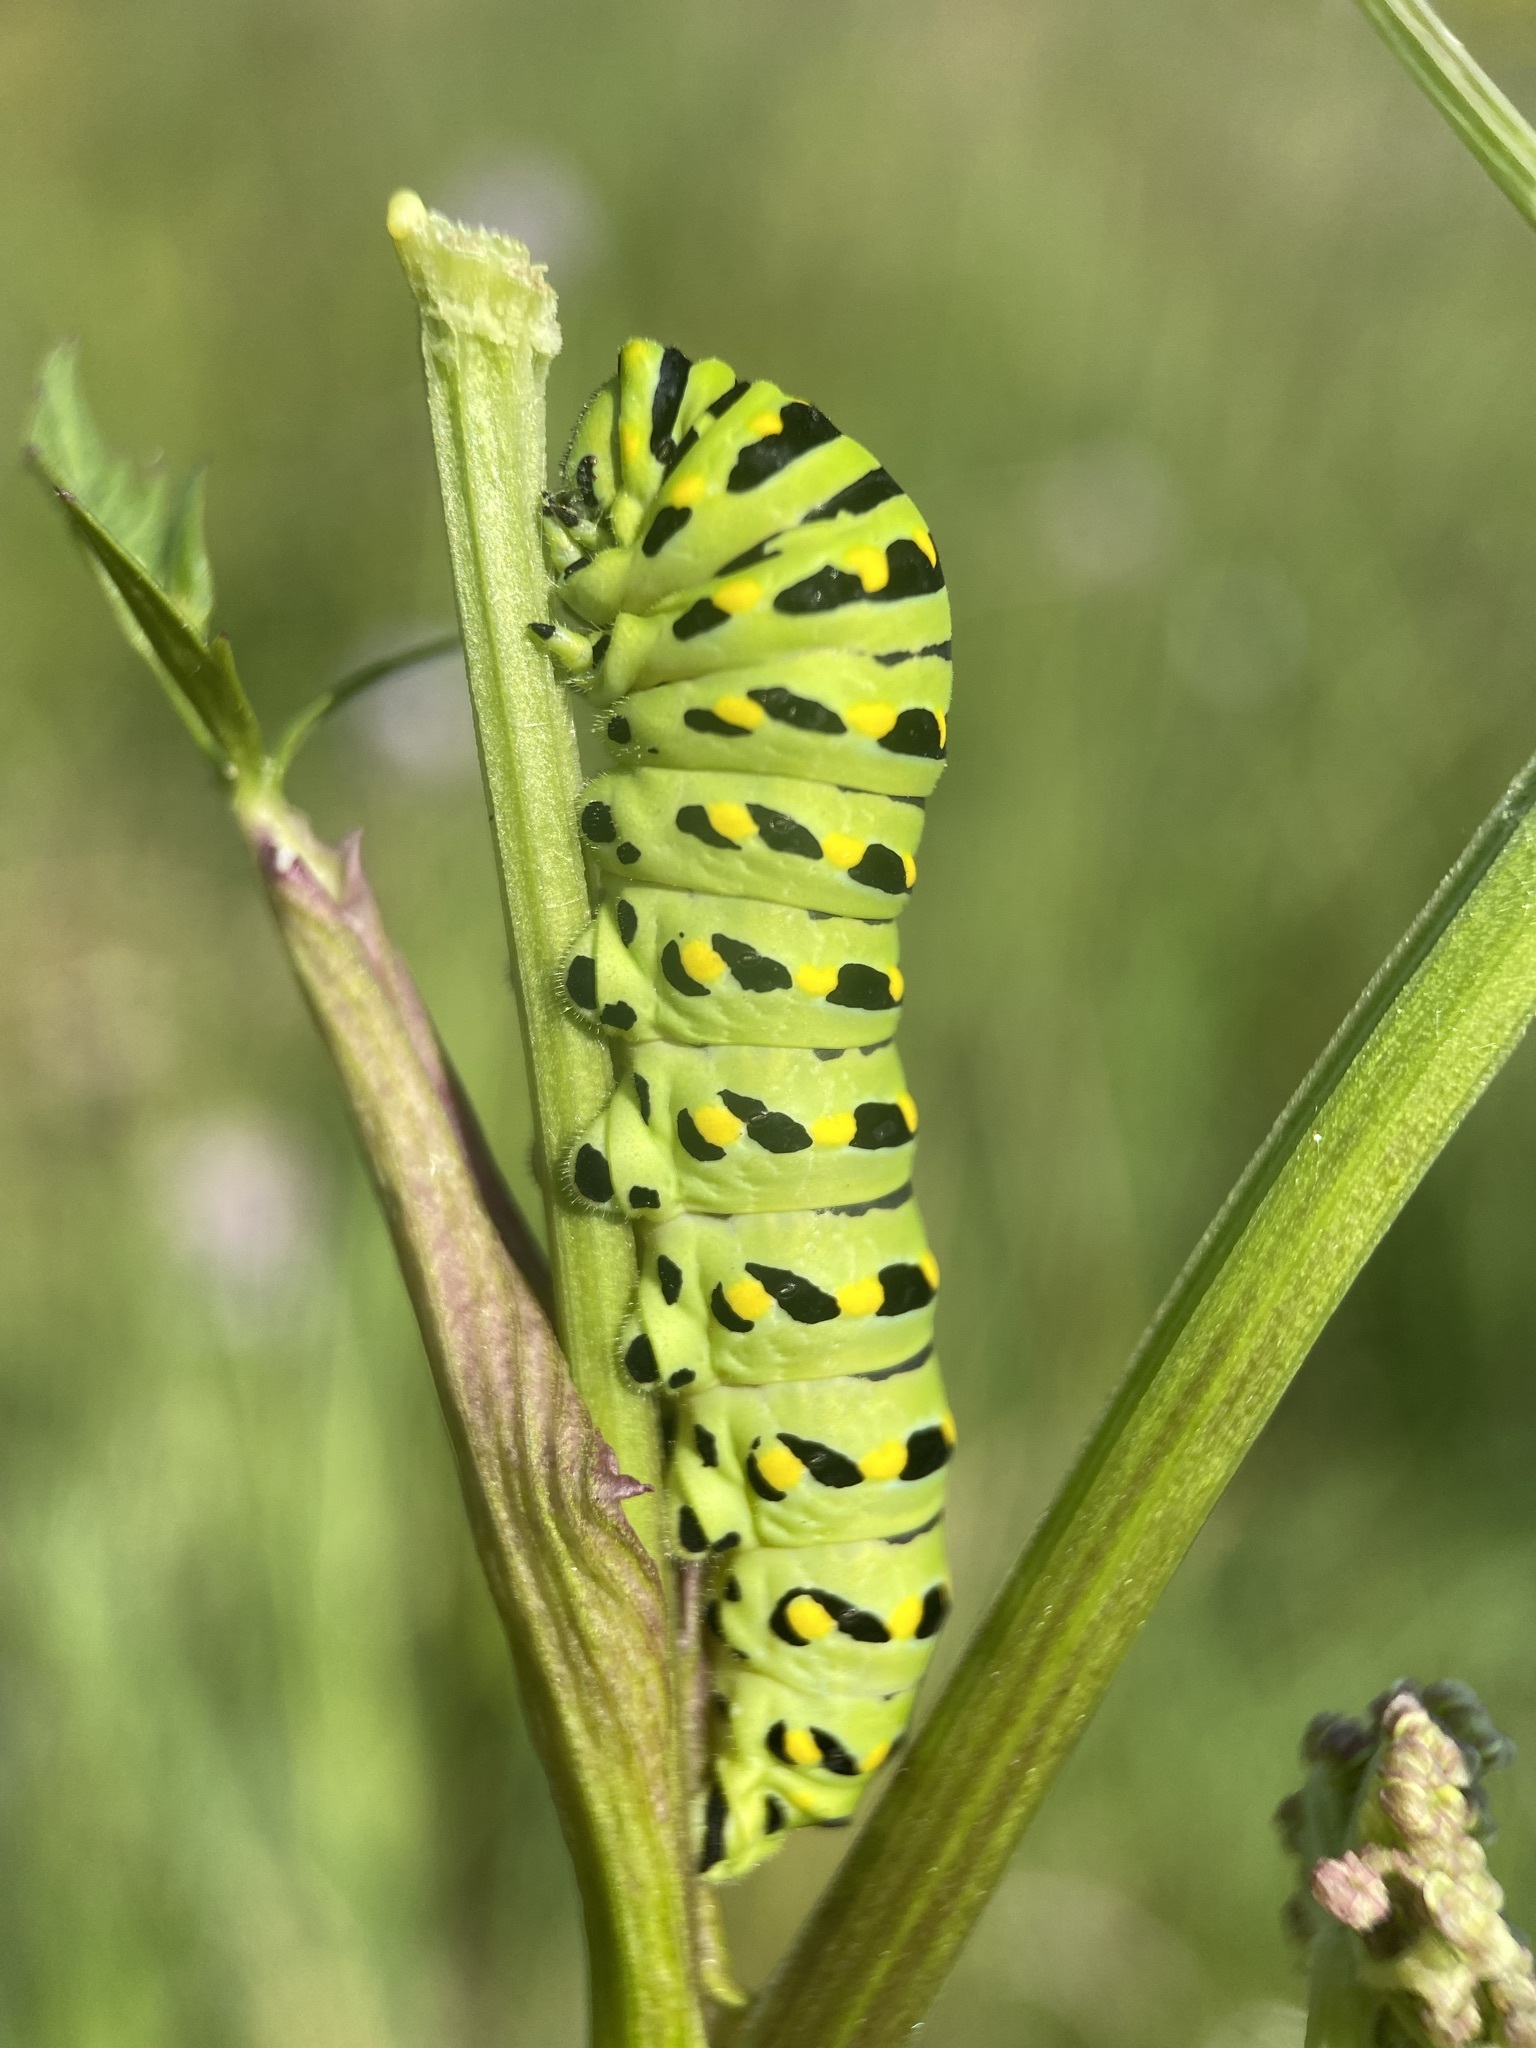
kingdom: Animalia
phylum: Arthropoda
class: Insecta
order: Lepidoptera
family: Papilionidae
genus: Papilio
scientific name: Papilio zelicaon
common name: Anise swallowtail
